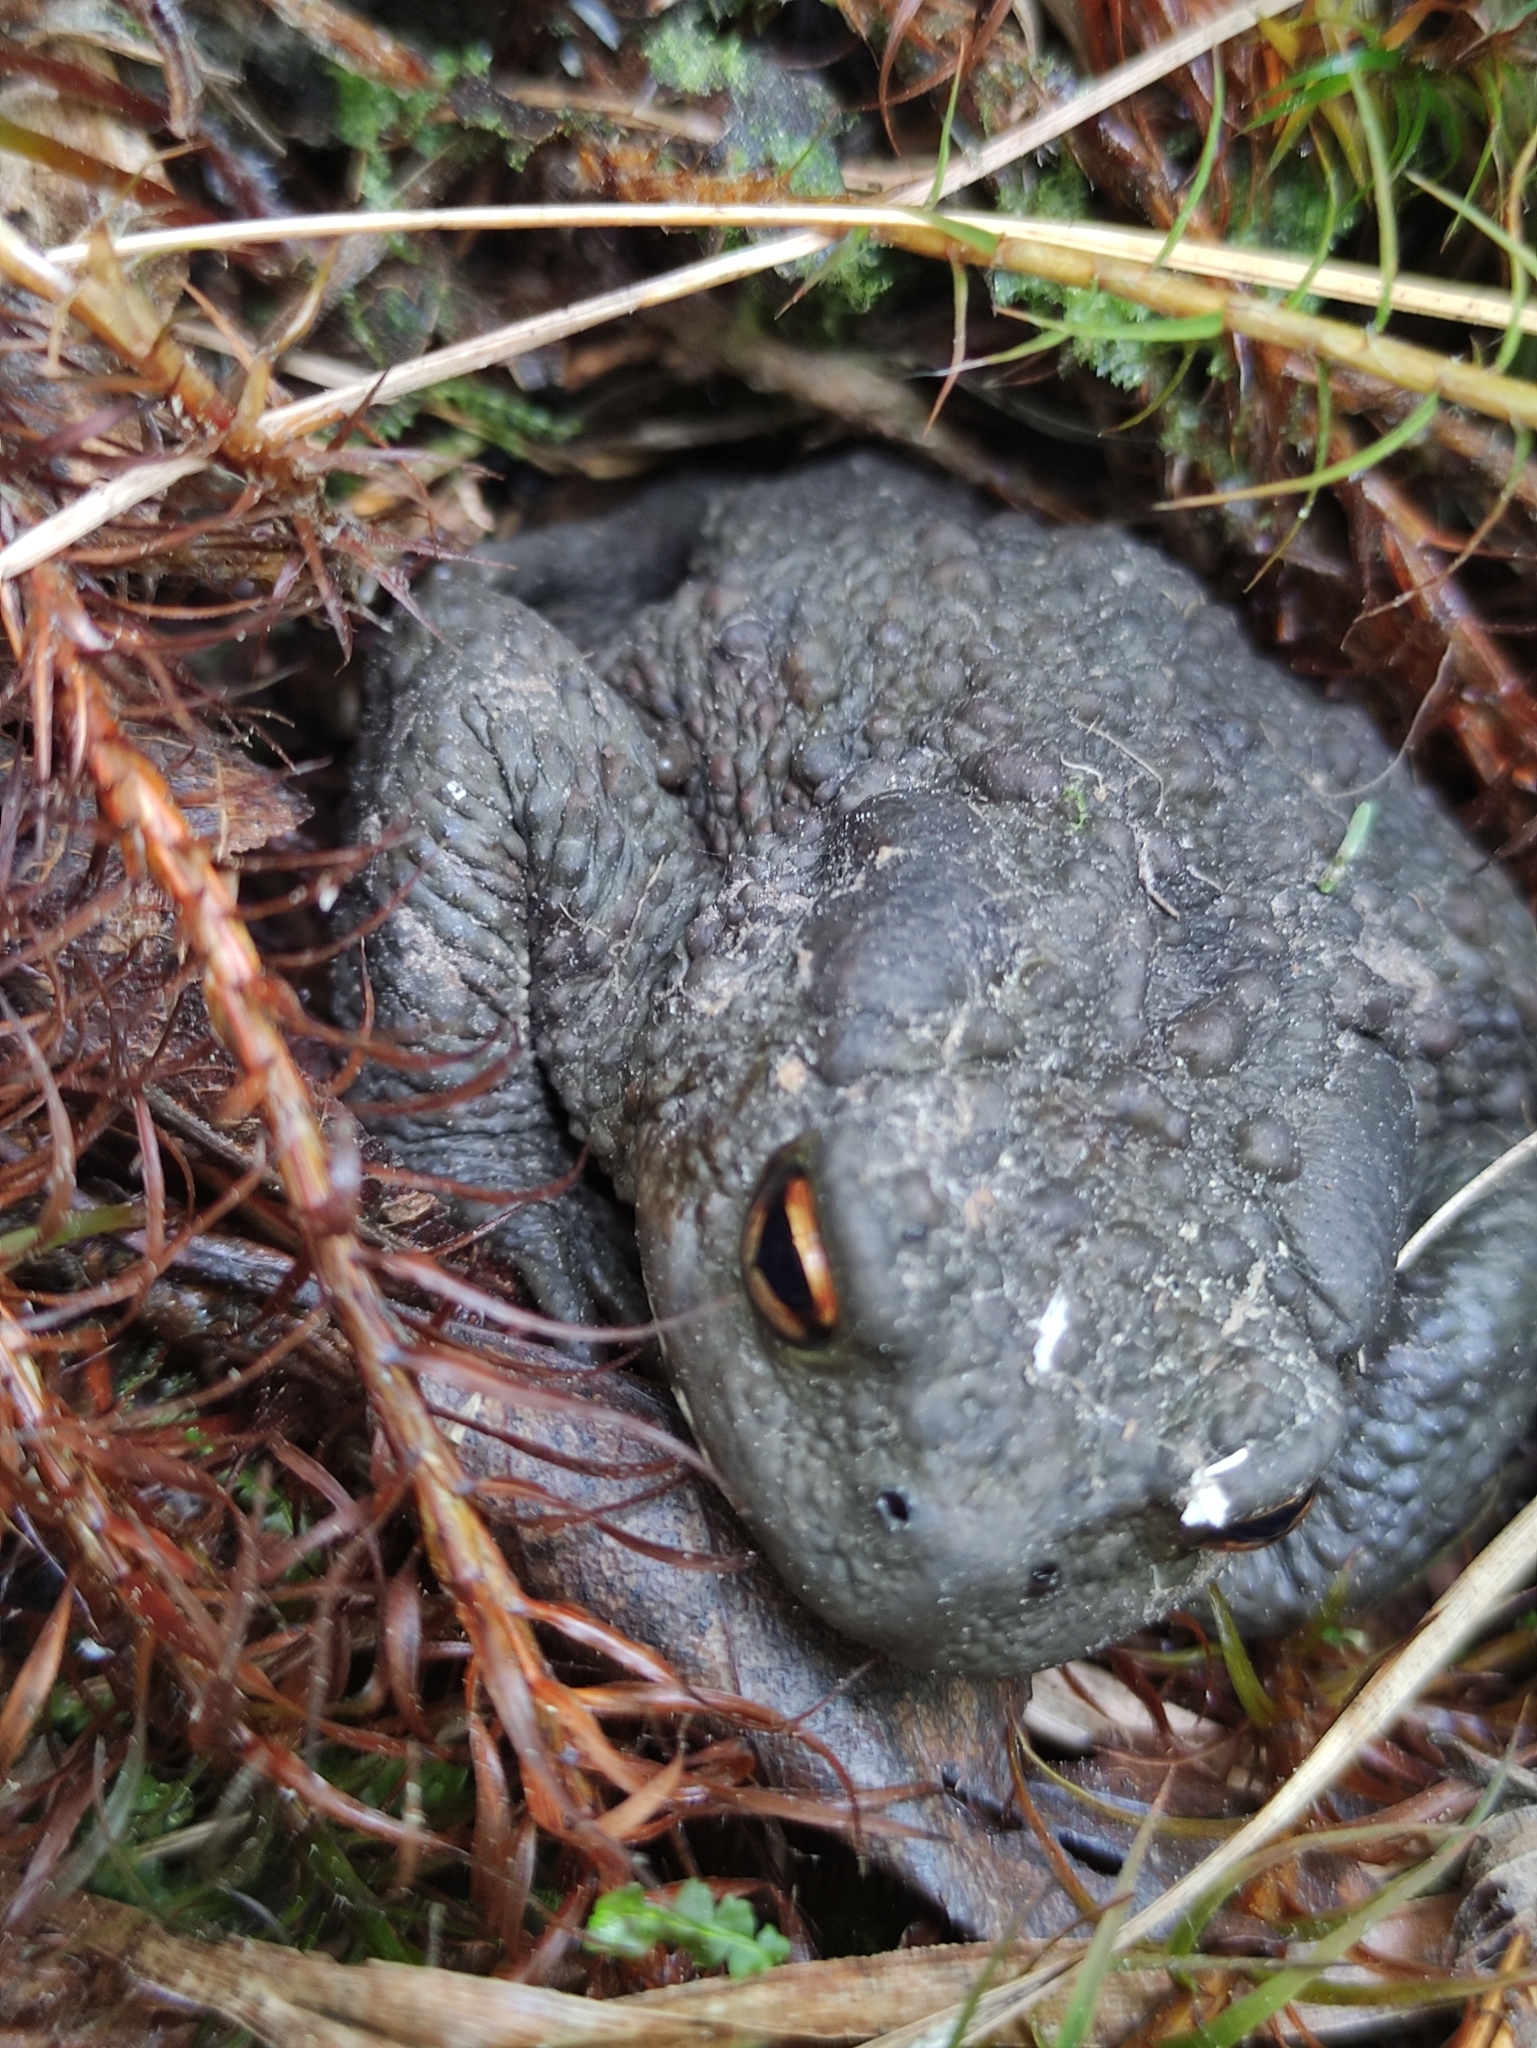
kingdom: Animalia
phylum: Chordata
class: Amphibia
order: Anura
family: Bufonidae
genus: Bufo
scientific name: Bufo bufo
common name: Common toad
